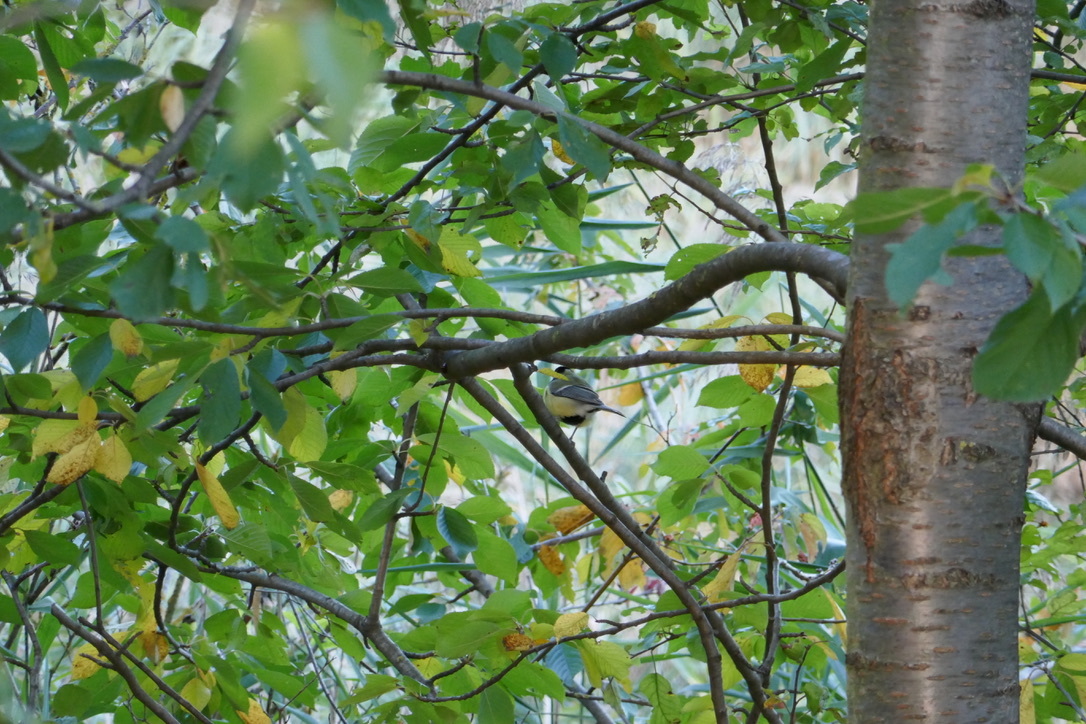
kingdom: Animalia
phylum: Chordata
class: Aves
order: Passeriformes
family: Paridae
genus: Parus
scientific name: Parus major
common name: Great tit
